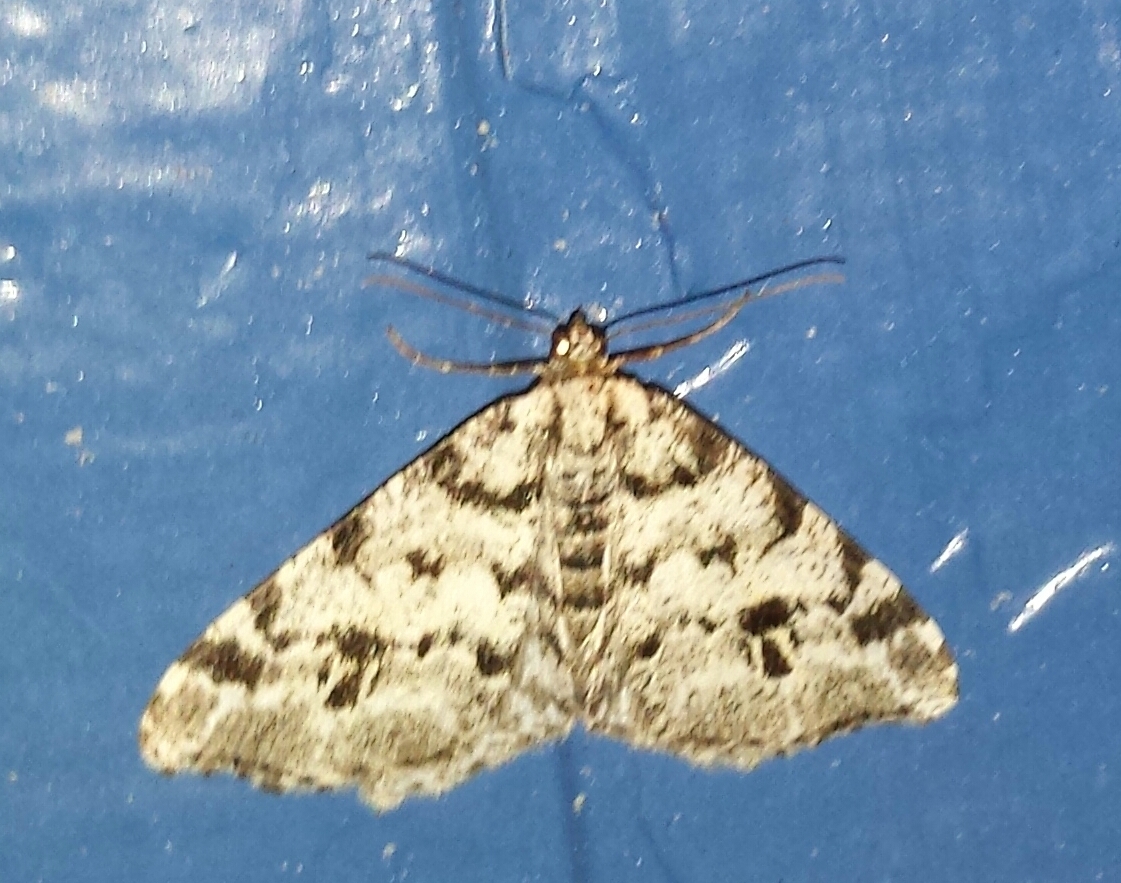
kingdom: Animalia
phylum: Arthropoda
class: Insecta
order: Lepidoptera
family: Geometridae
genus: Macaria
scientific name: Macaria oweni
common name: Owen's angle
